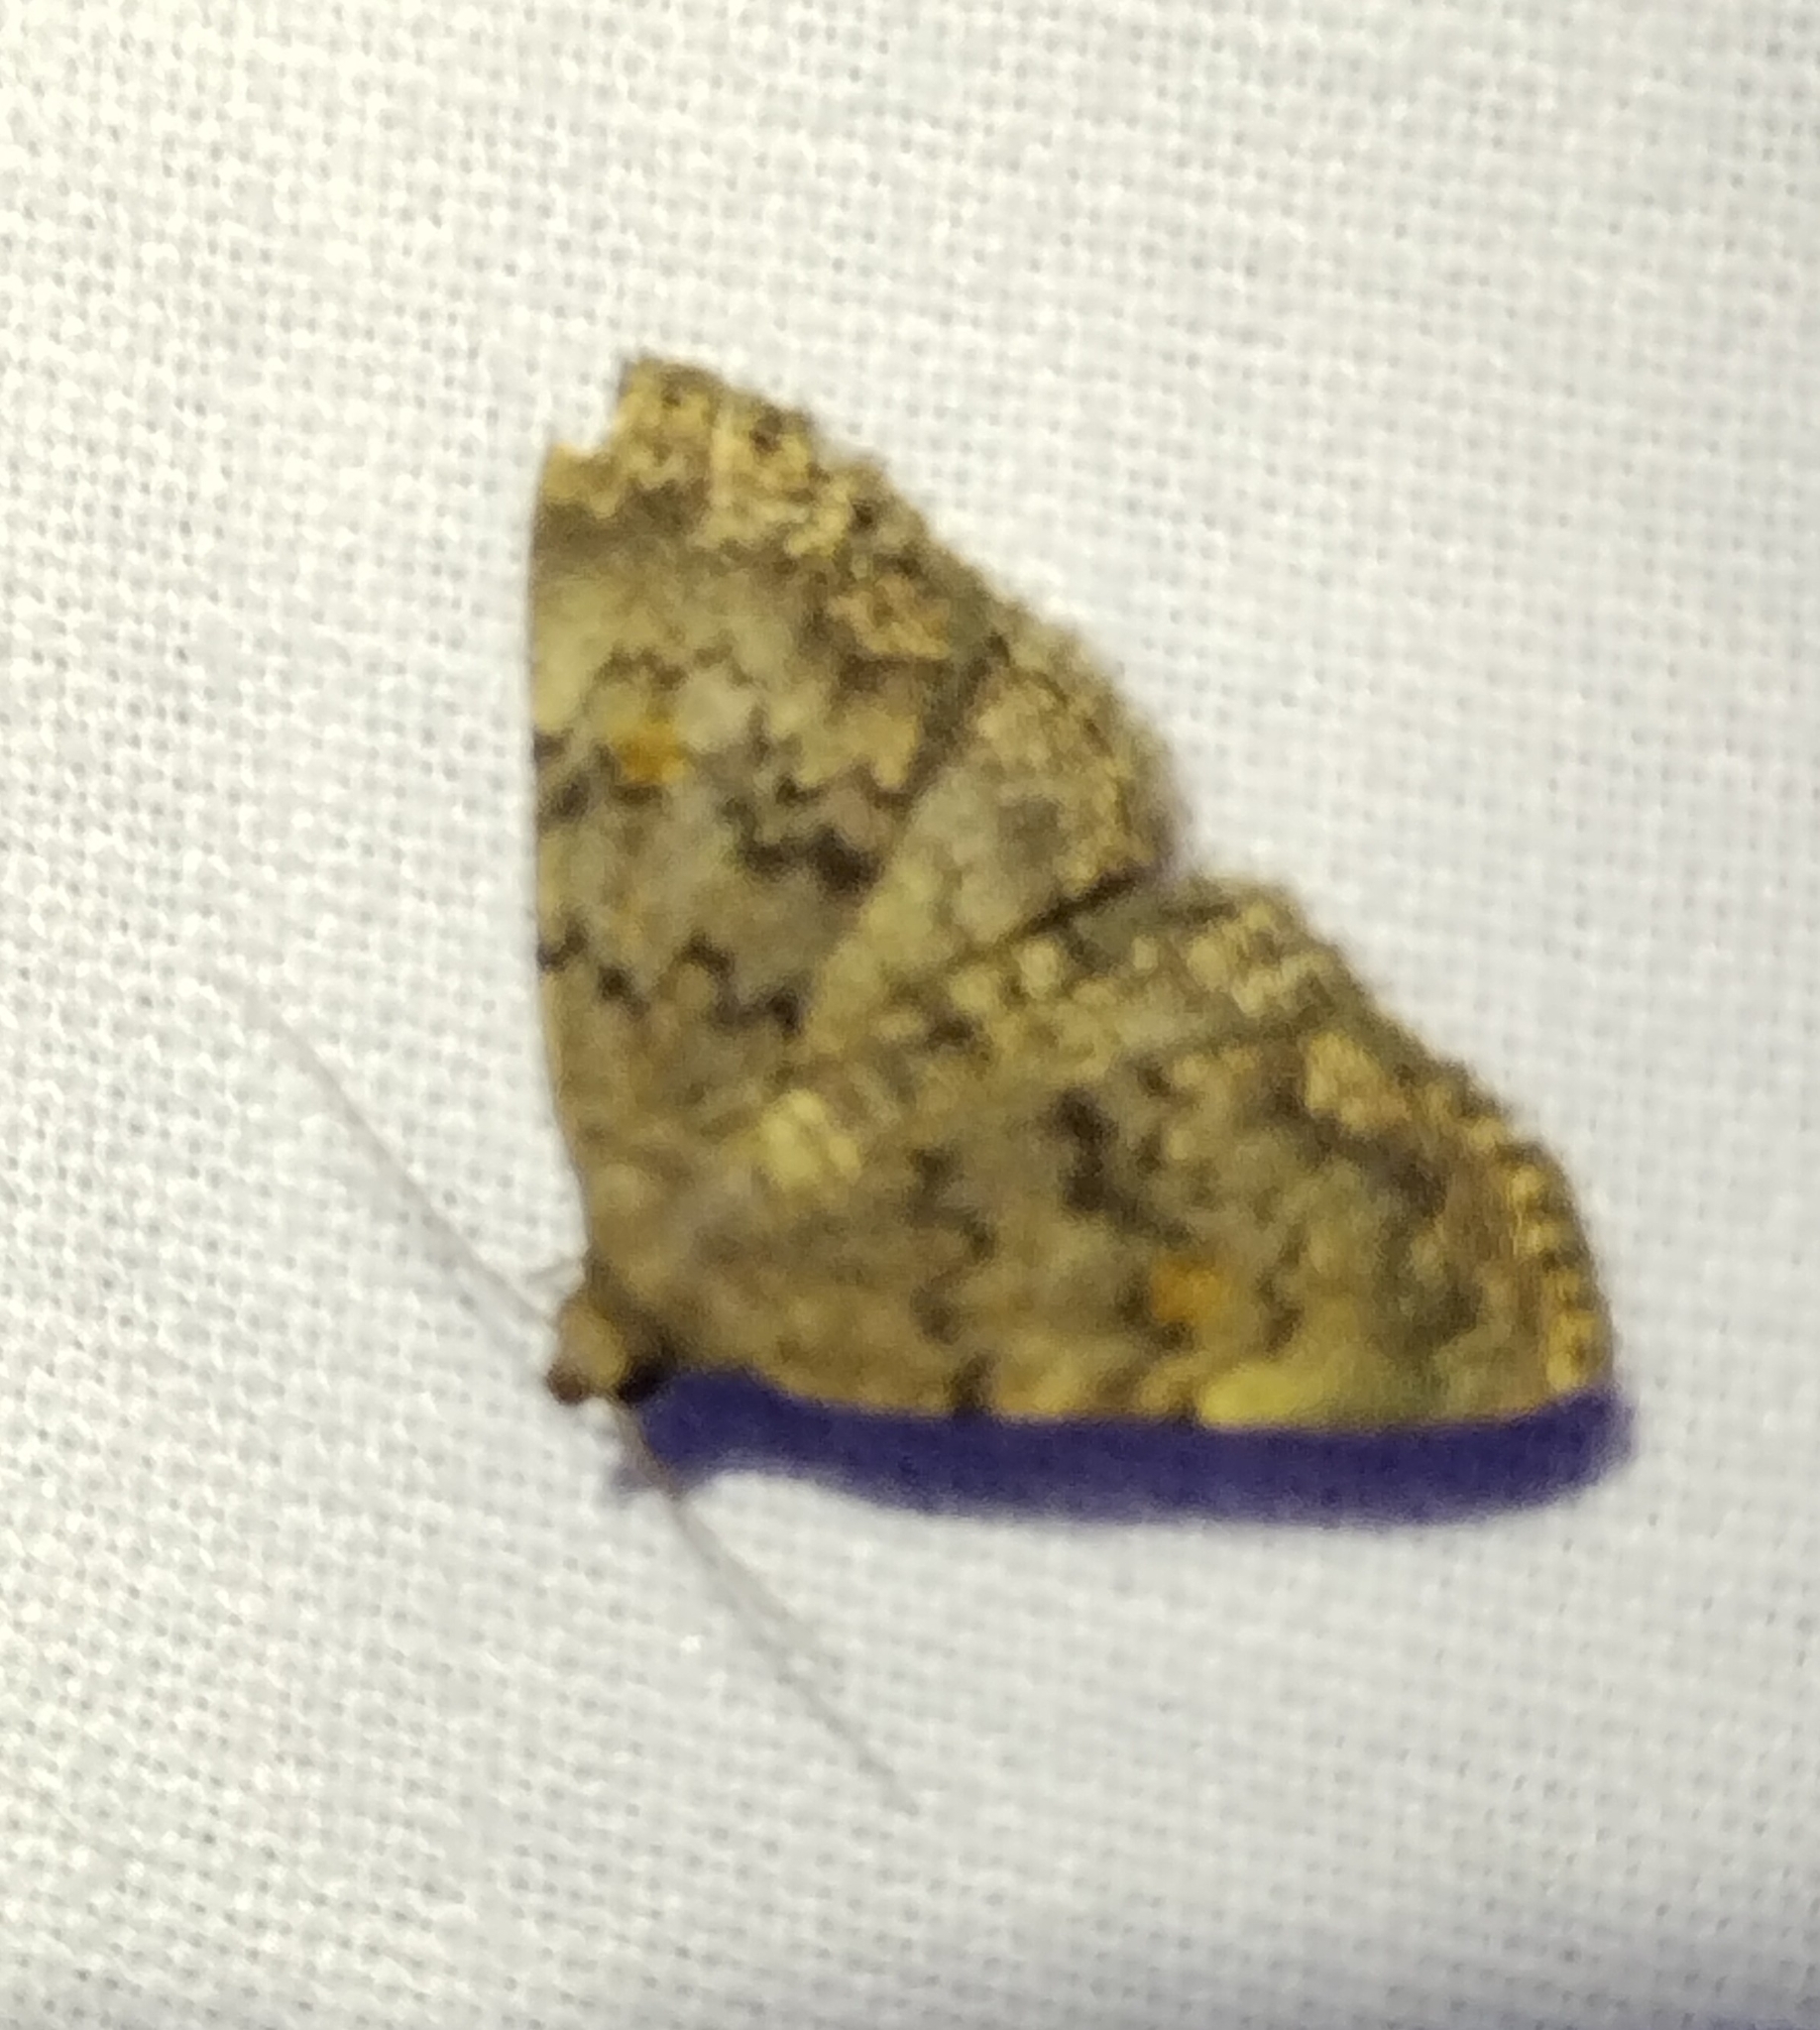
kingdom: Animalia
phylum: Arthropoda
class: Insecta
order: Lepidoptera
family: Erebidae
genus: Idia
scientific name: Idia aemula
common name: Common idia moth
